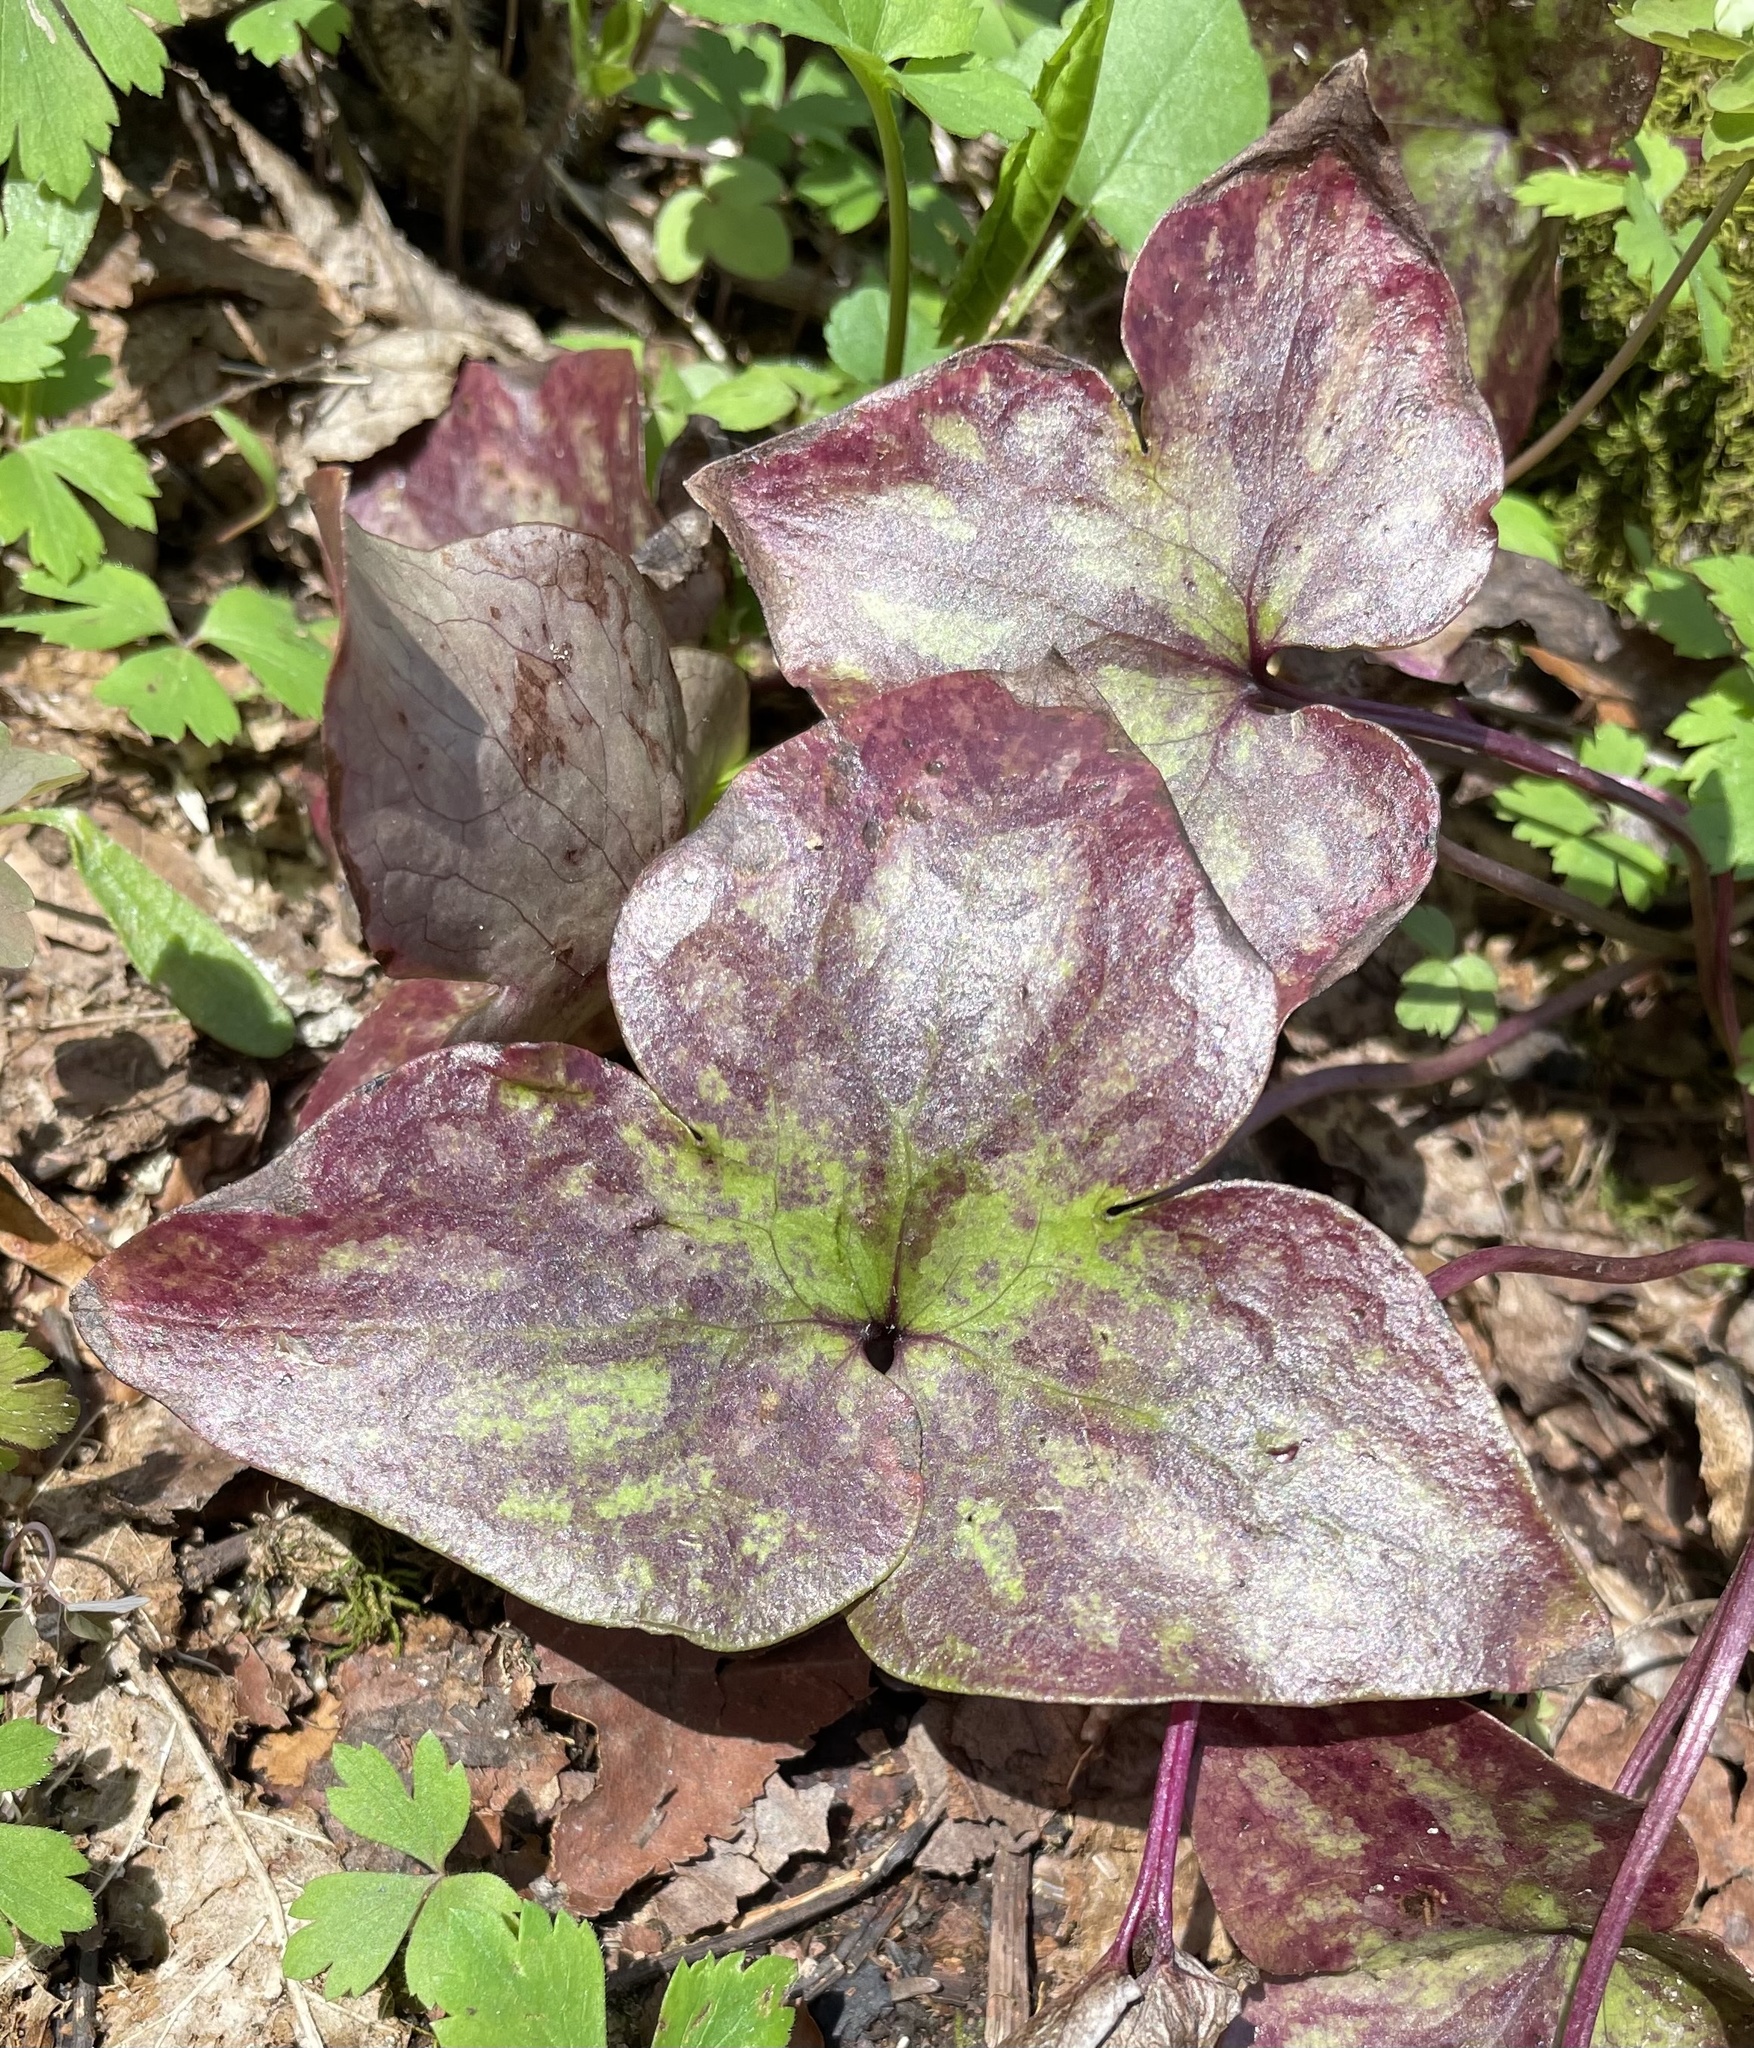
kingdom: Plantae
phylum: Tracheophyta
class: Magnoliopsida
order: Ranunculales
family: Ranunculaceae
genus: Hepatica
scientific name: Hepatica acutiloba
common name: Sharp-lobed hepatica
